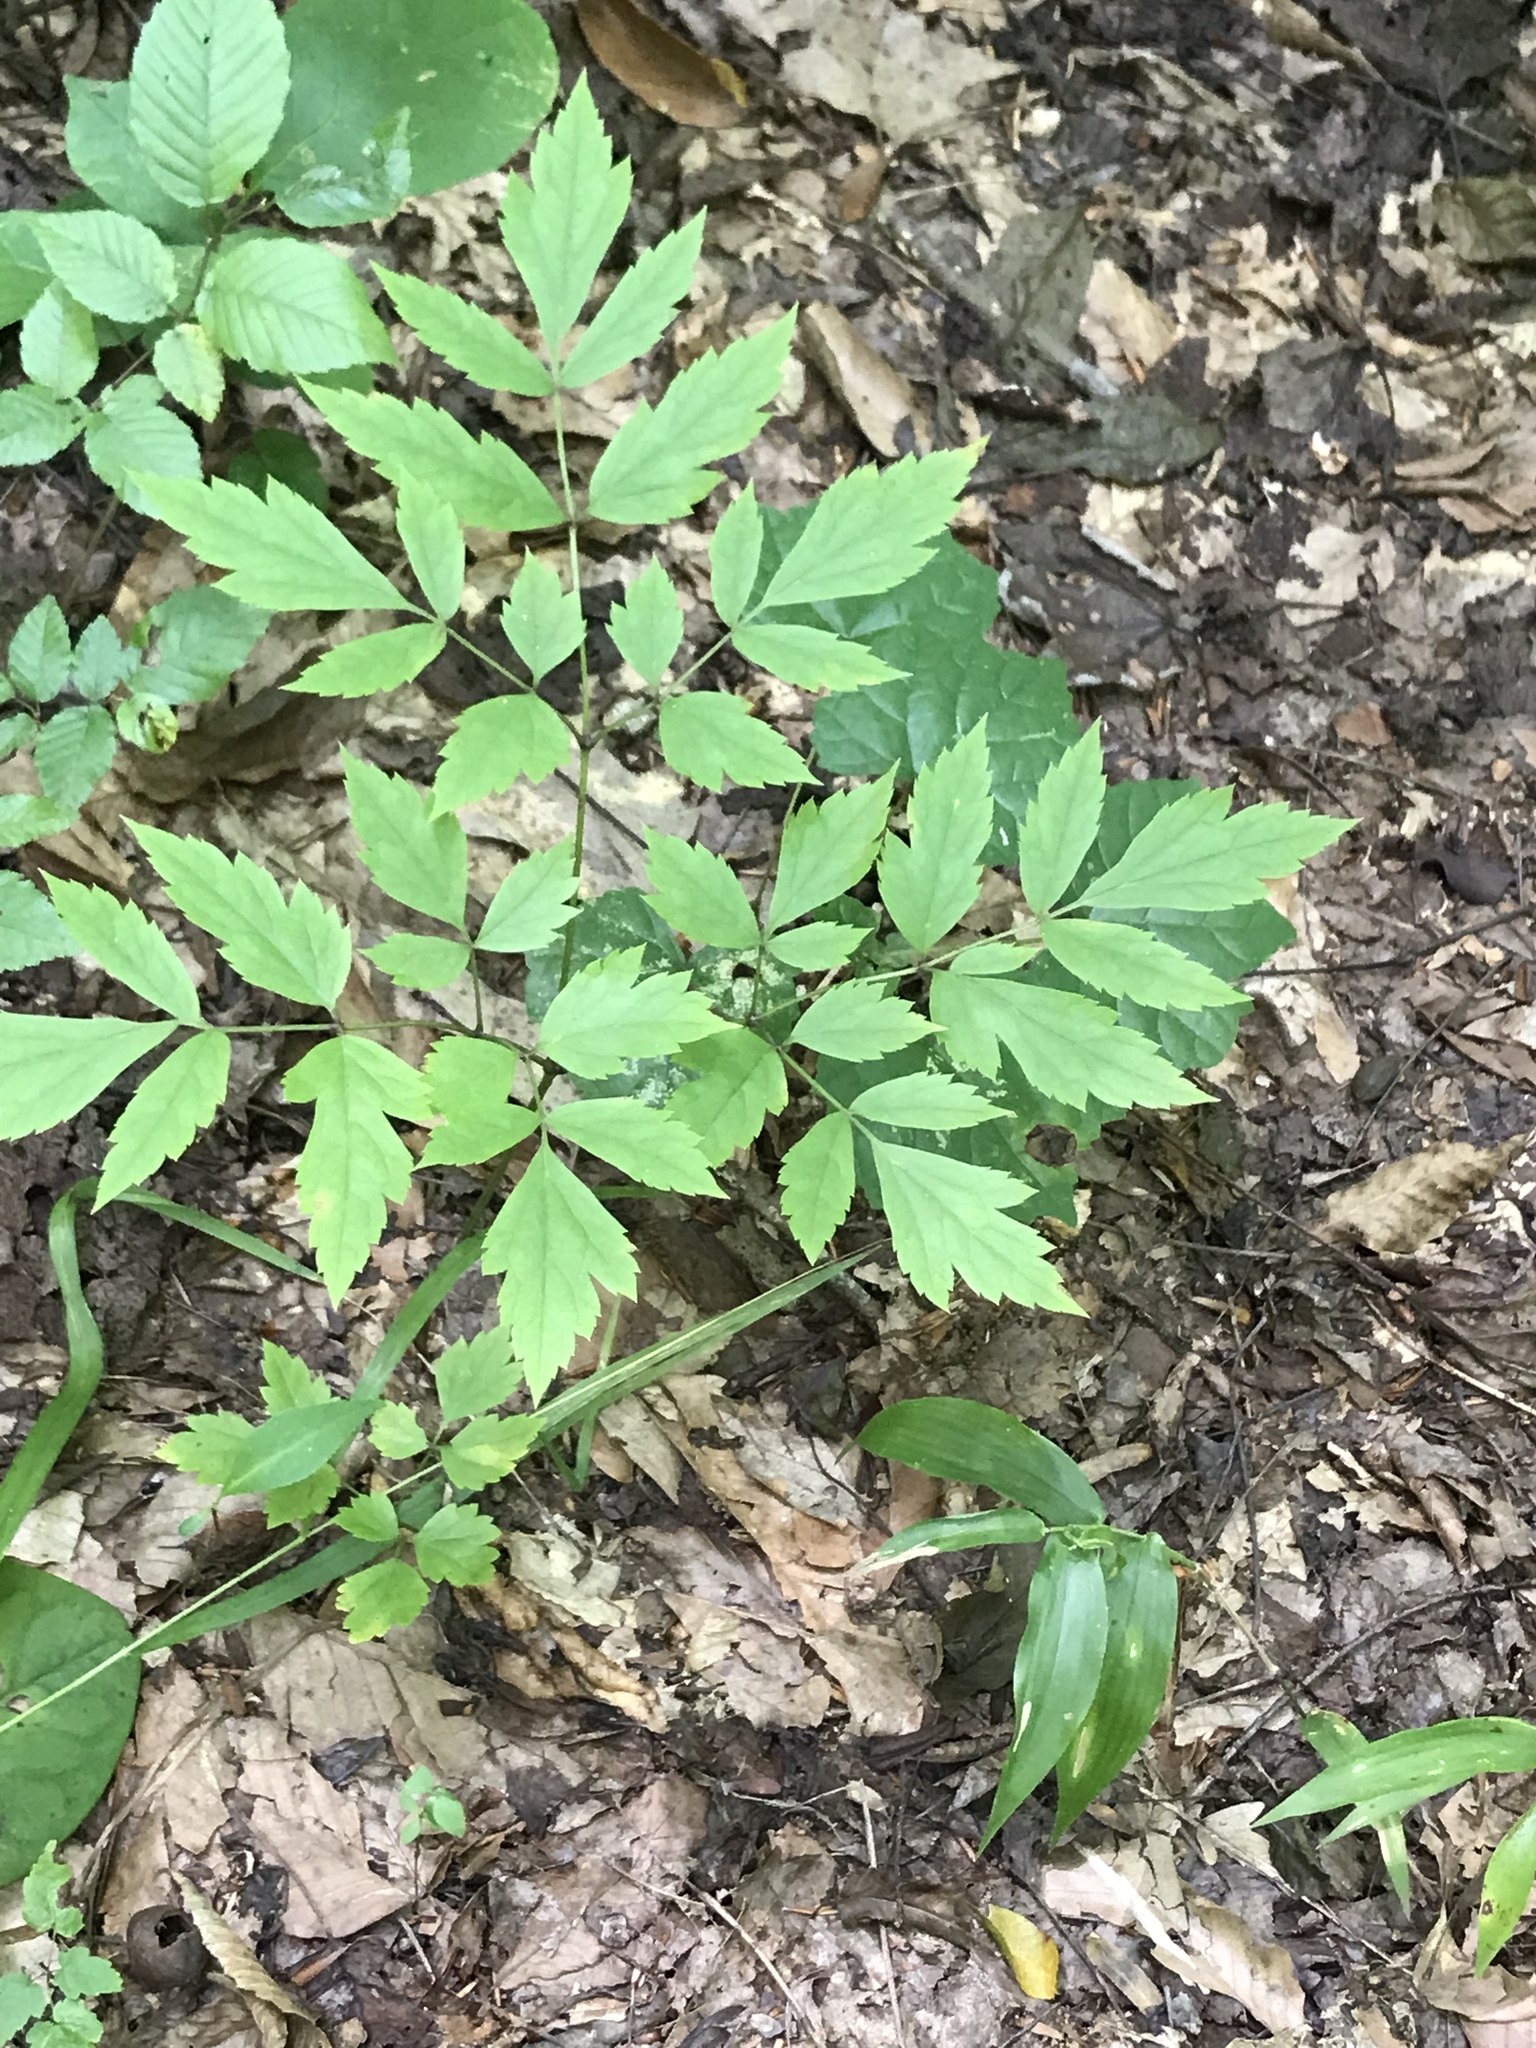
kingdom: Plantae
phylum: Tracheophyta
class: Magnoliopsida
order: Ranunculales
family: Ranunculaceae
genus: Actaea
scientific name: Actaea racemosa
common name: Black cohosh
